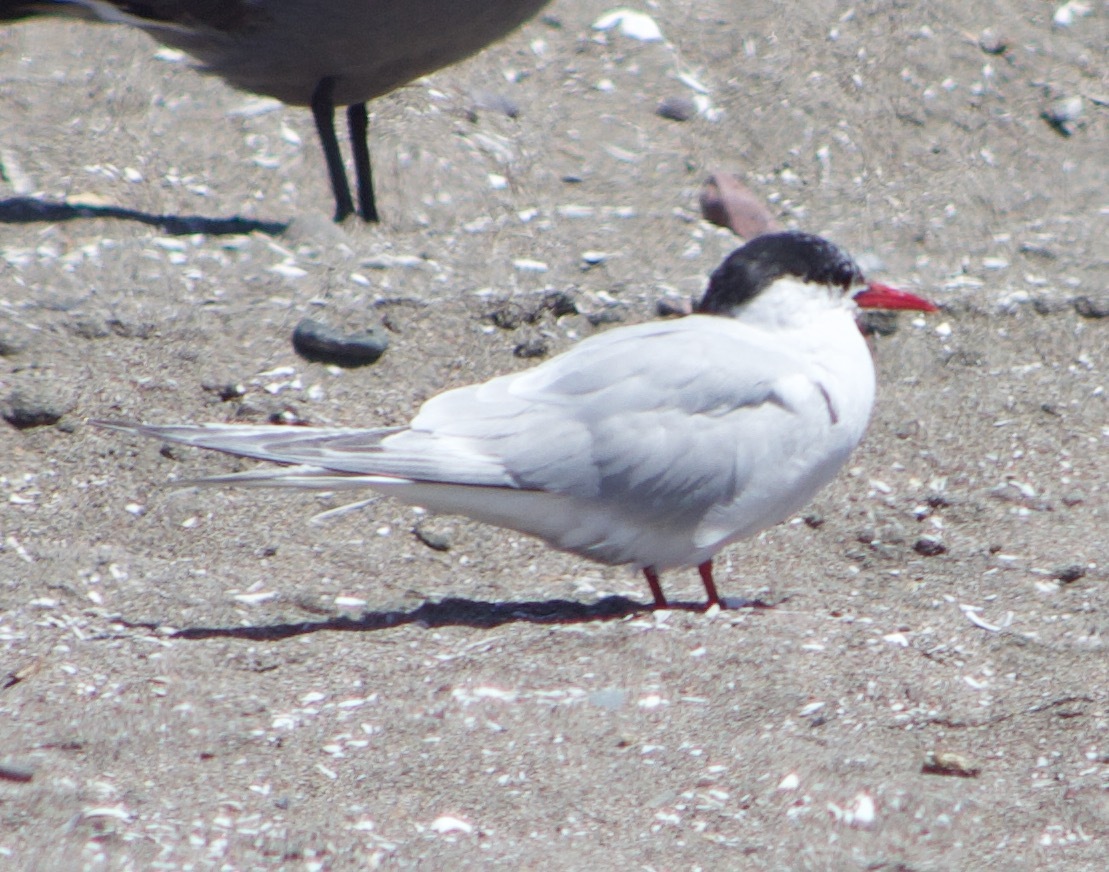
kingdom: Animalia
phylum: Chordata
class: Aves
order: Charadriiformes
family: Laridae
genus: Sterna
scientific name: Sterna hirundinacea
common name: South american tern
